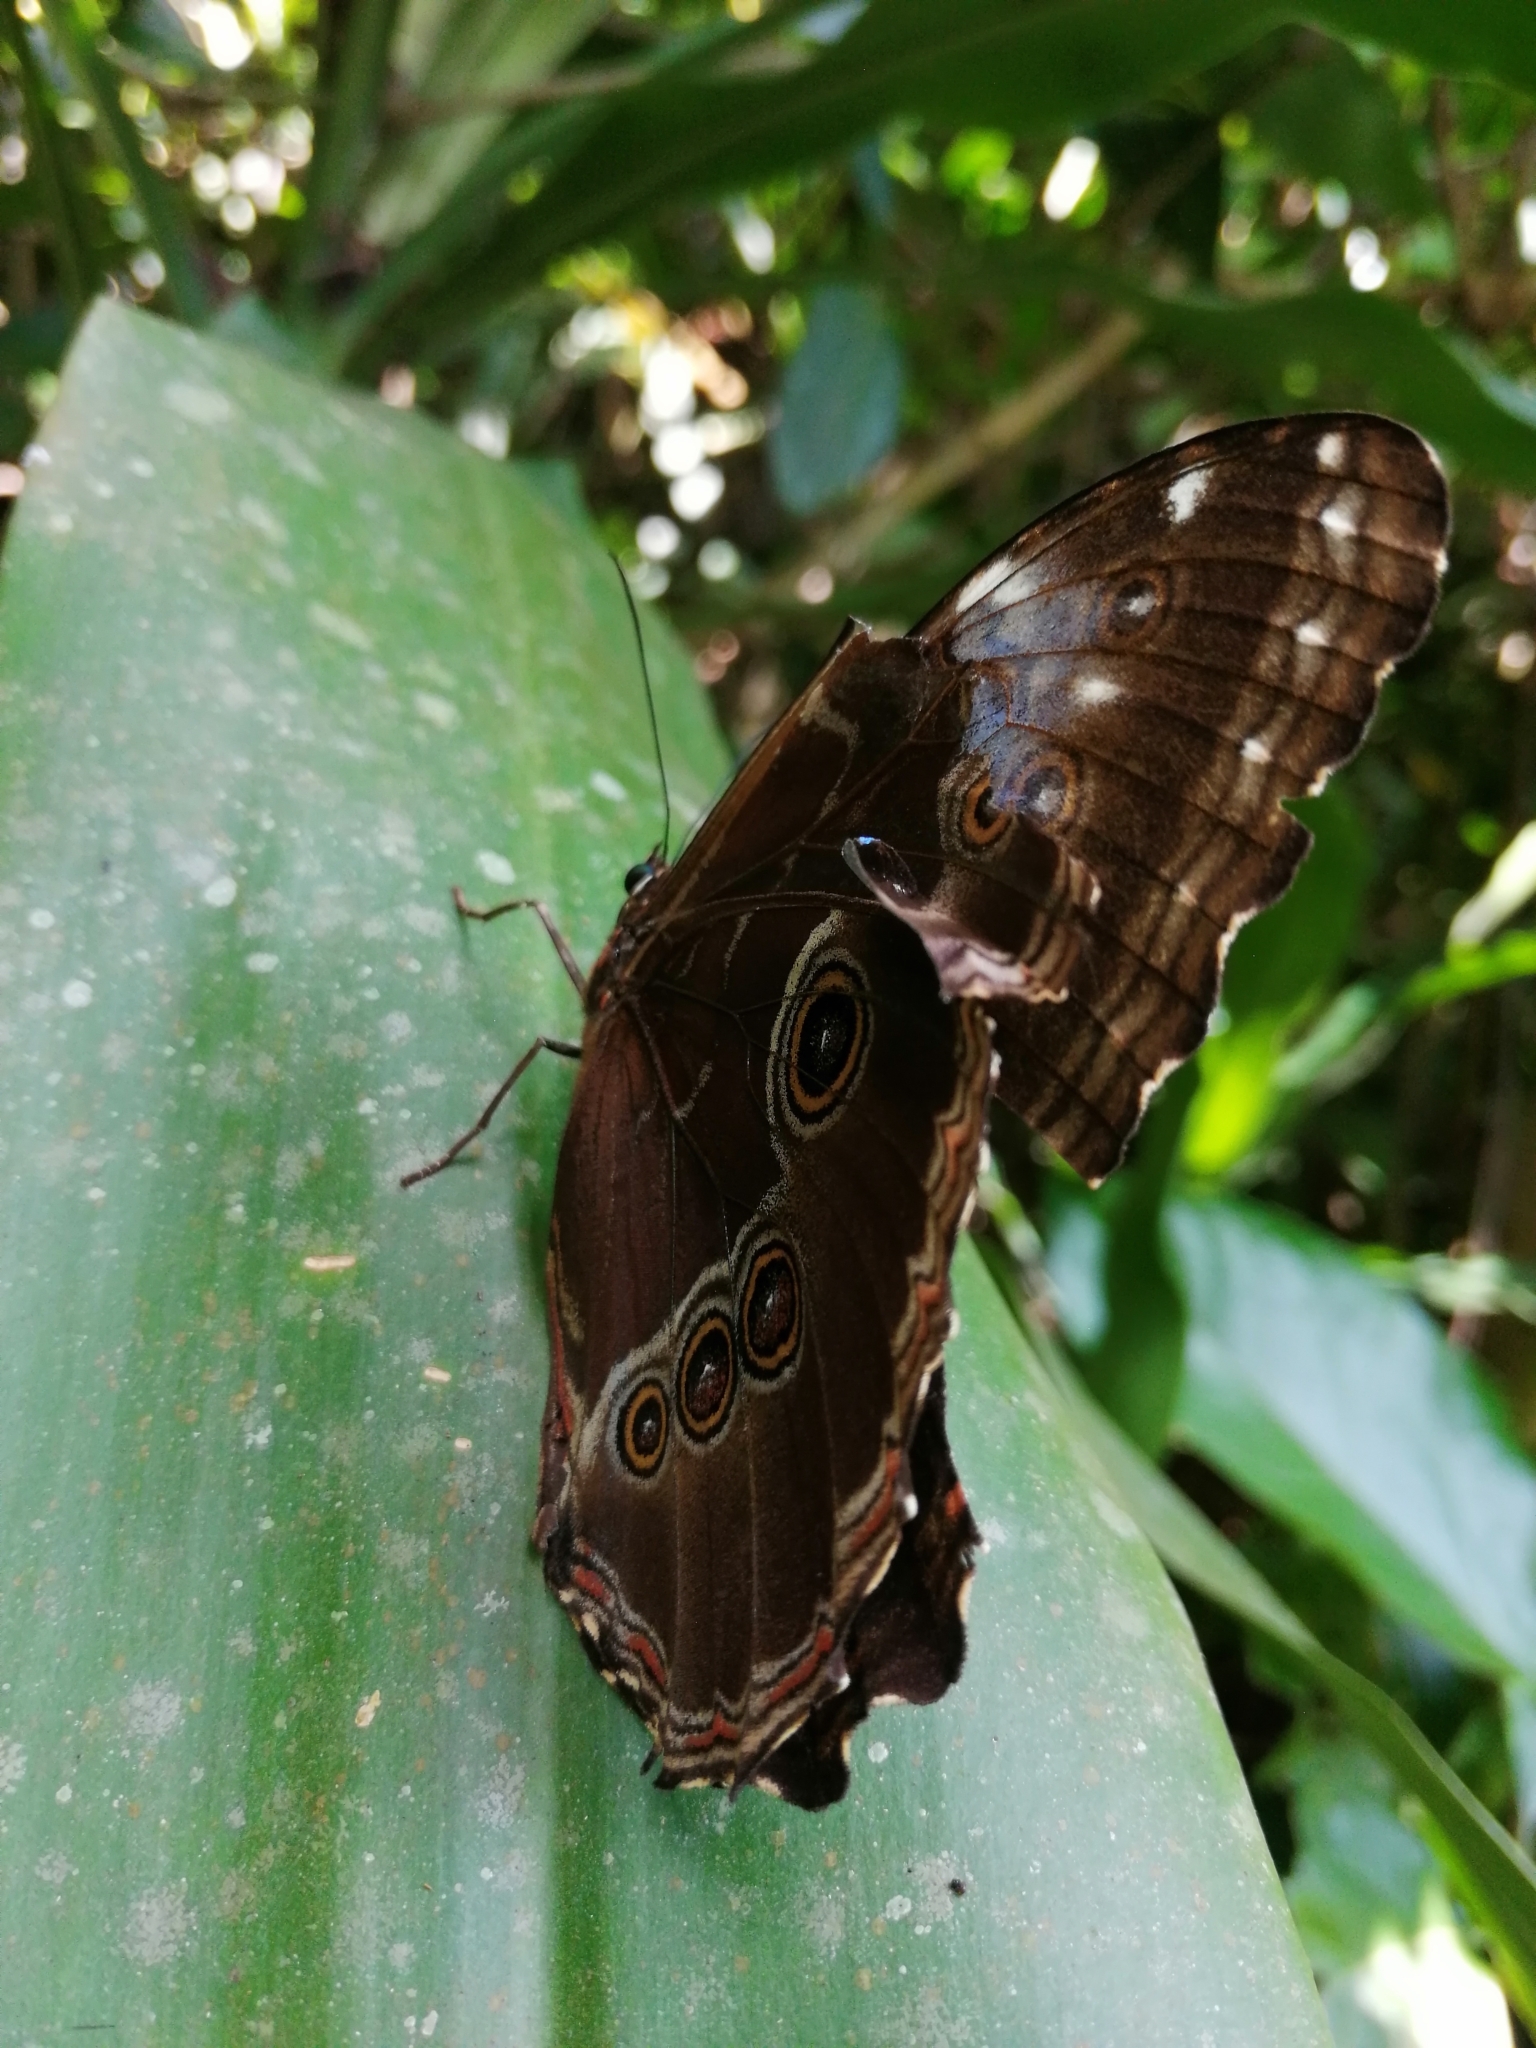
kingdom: Animalia
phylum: Arthropoda
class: Insecta
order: Lepidoptera
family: Nymphalidae
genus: Morpho
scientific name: Morpho helenor
